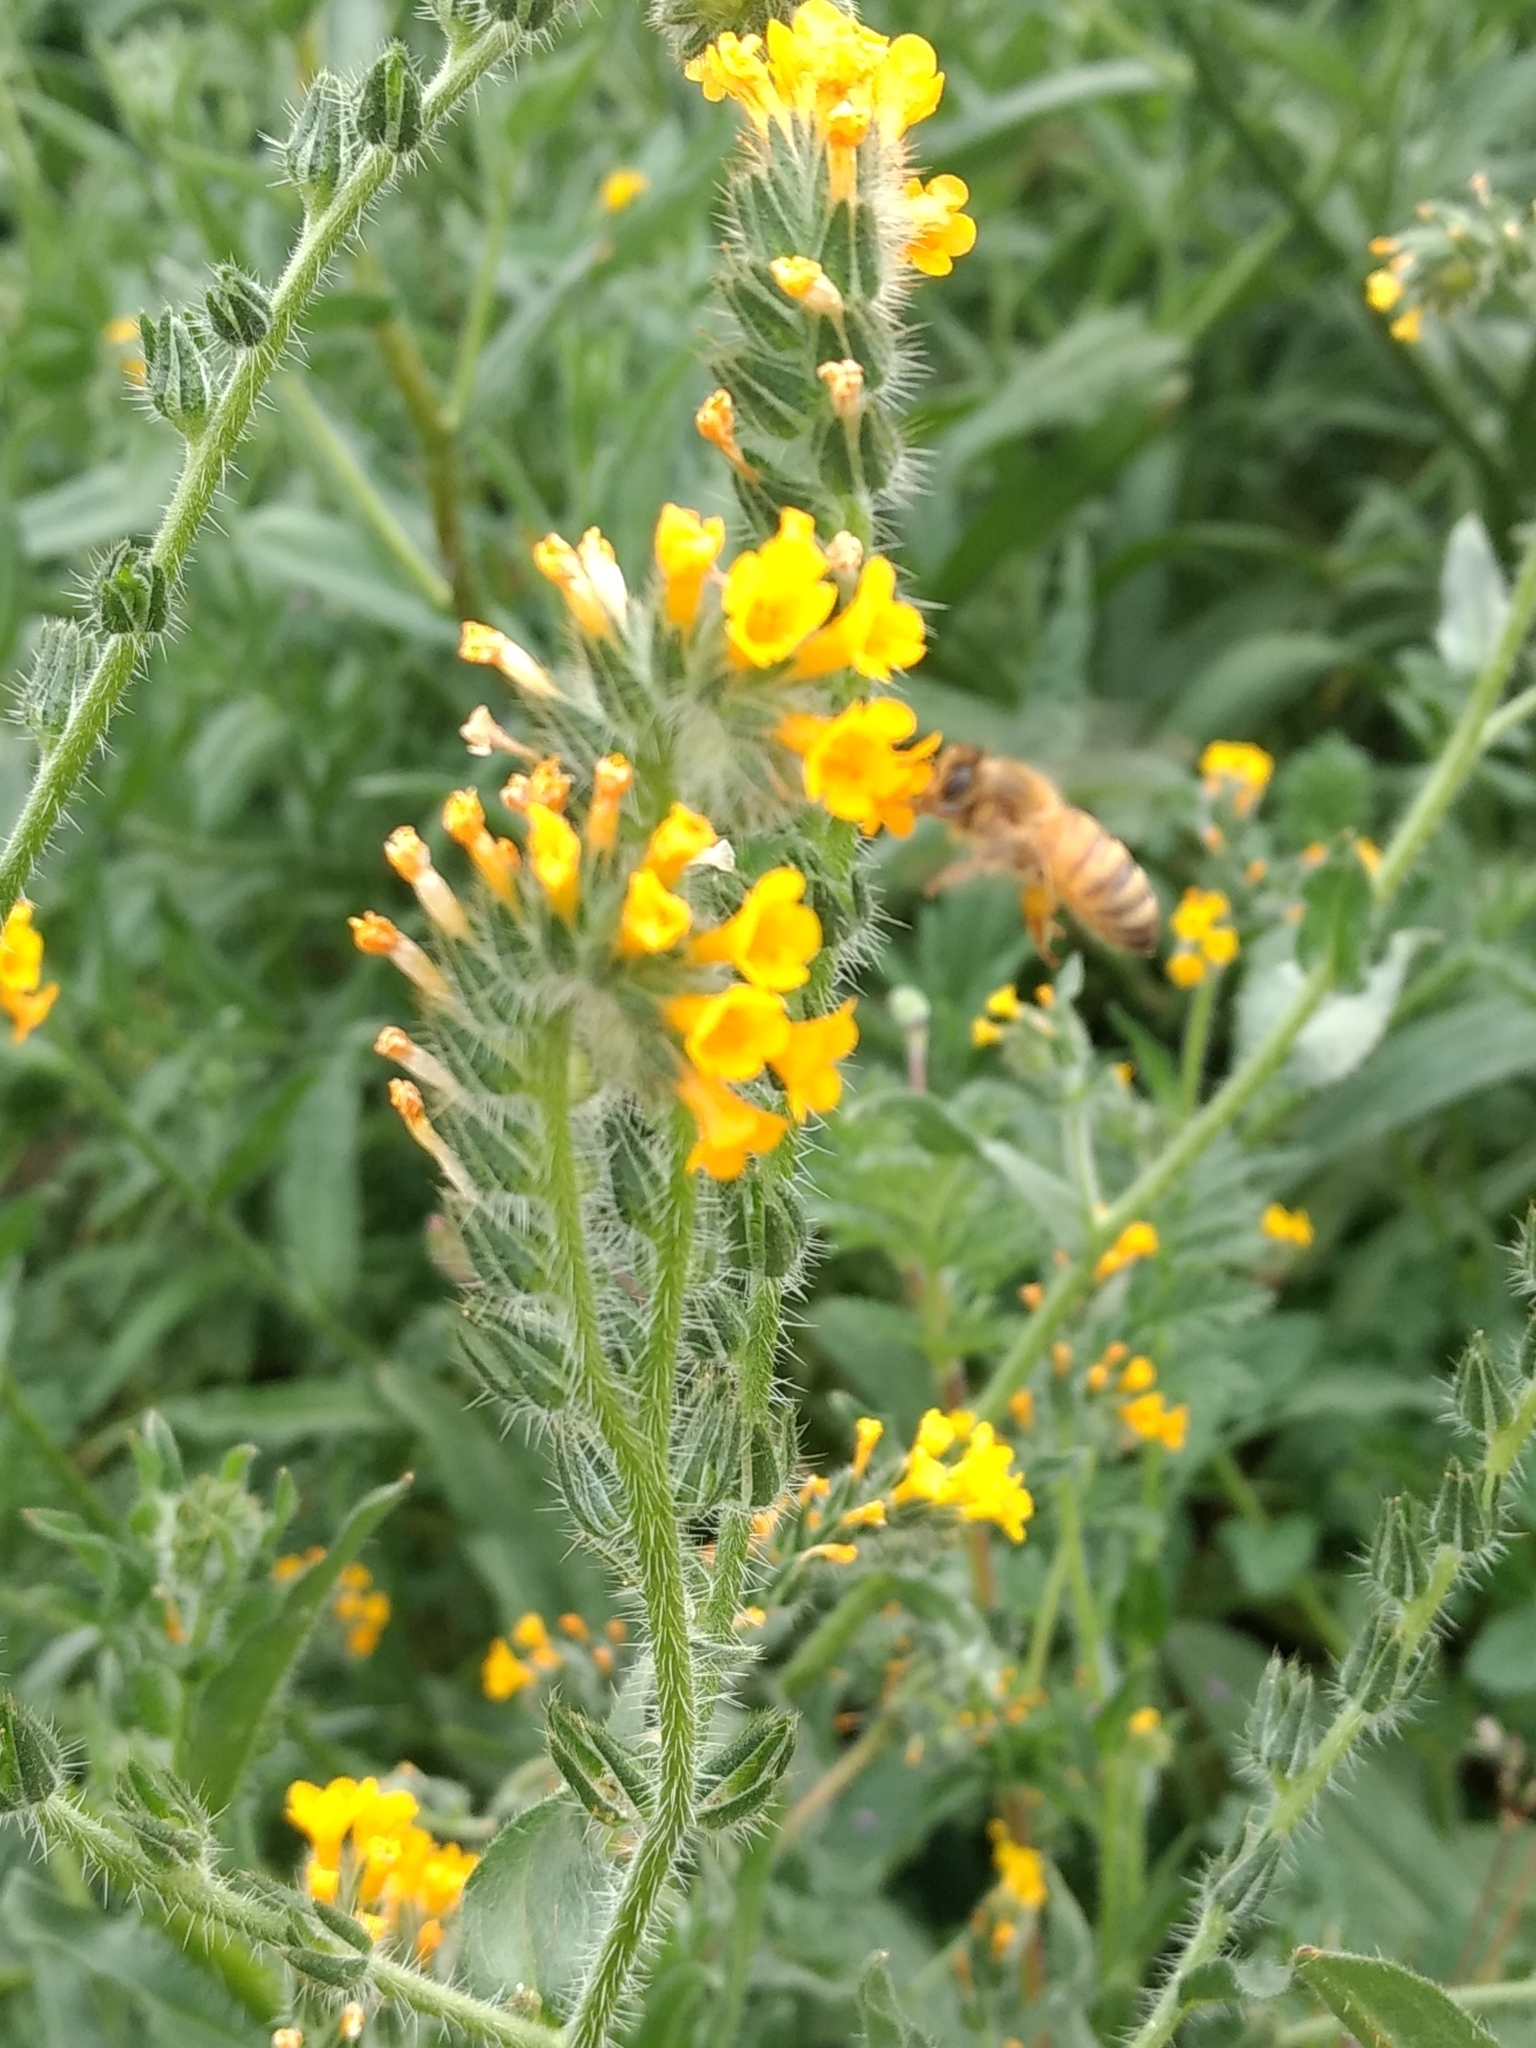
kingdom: Animalia
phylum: Arthropoda
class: Insecta
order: Hymenoptera
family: Apidae
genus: Apis
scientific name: Apis mellifera
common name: Honey bee
